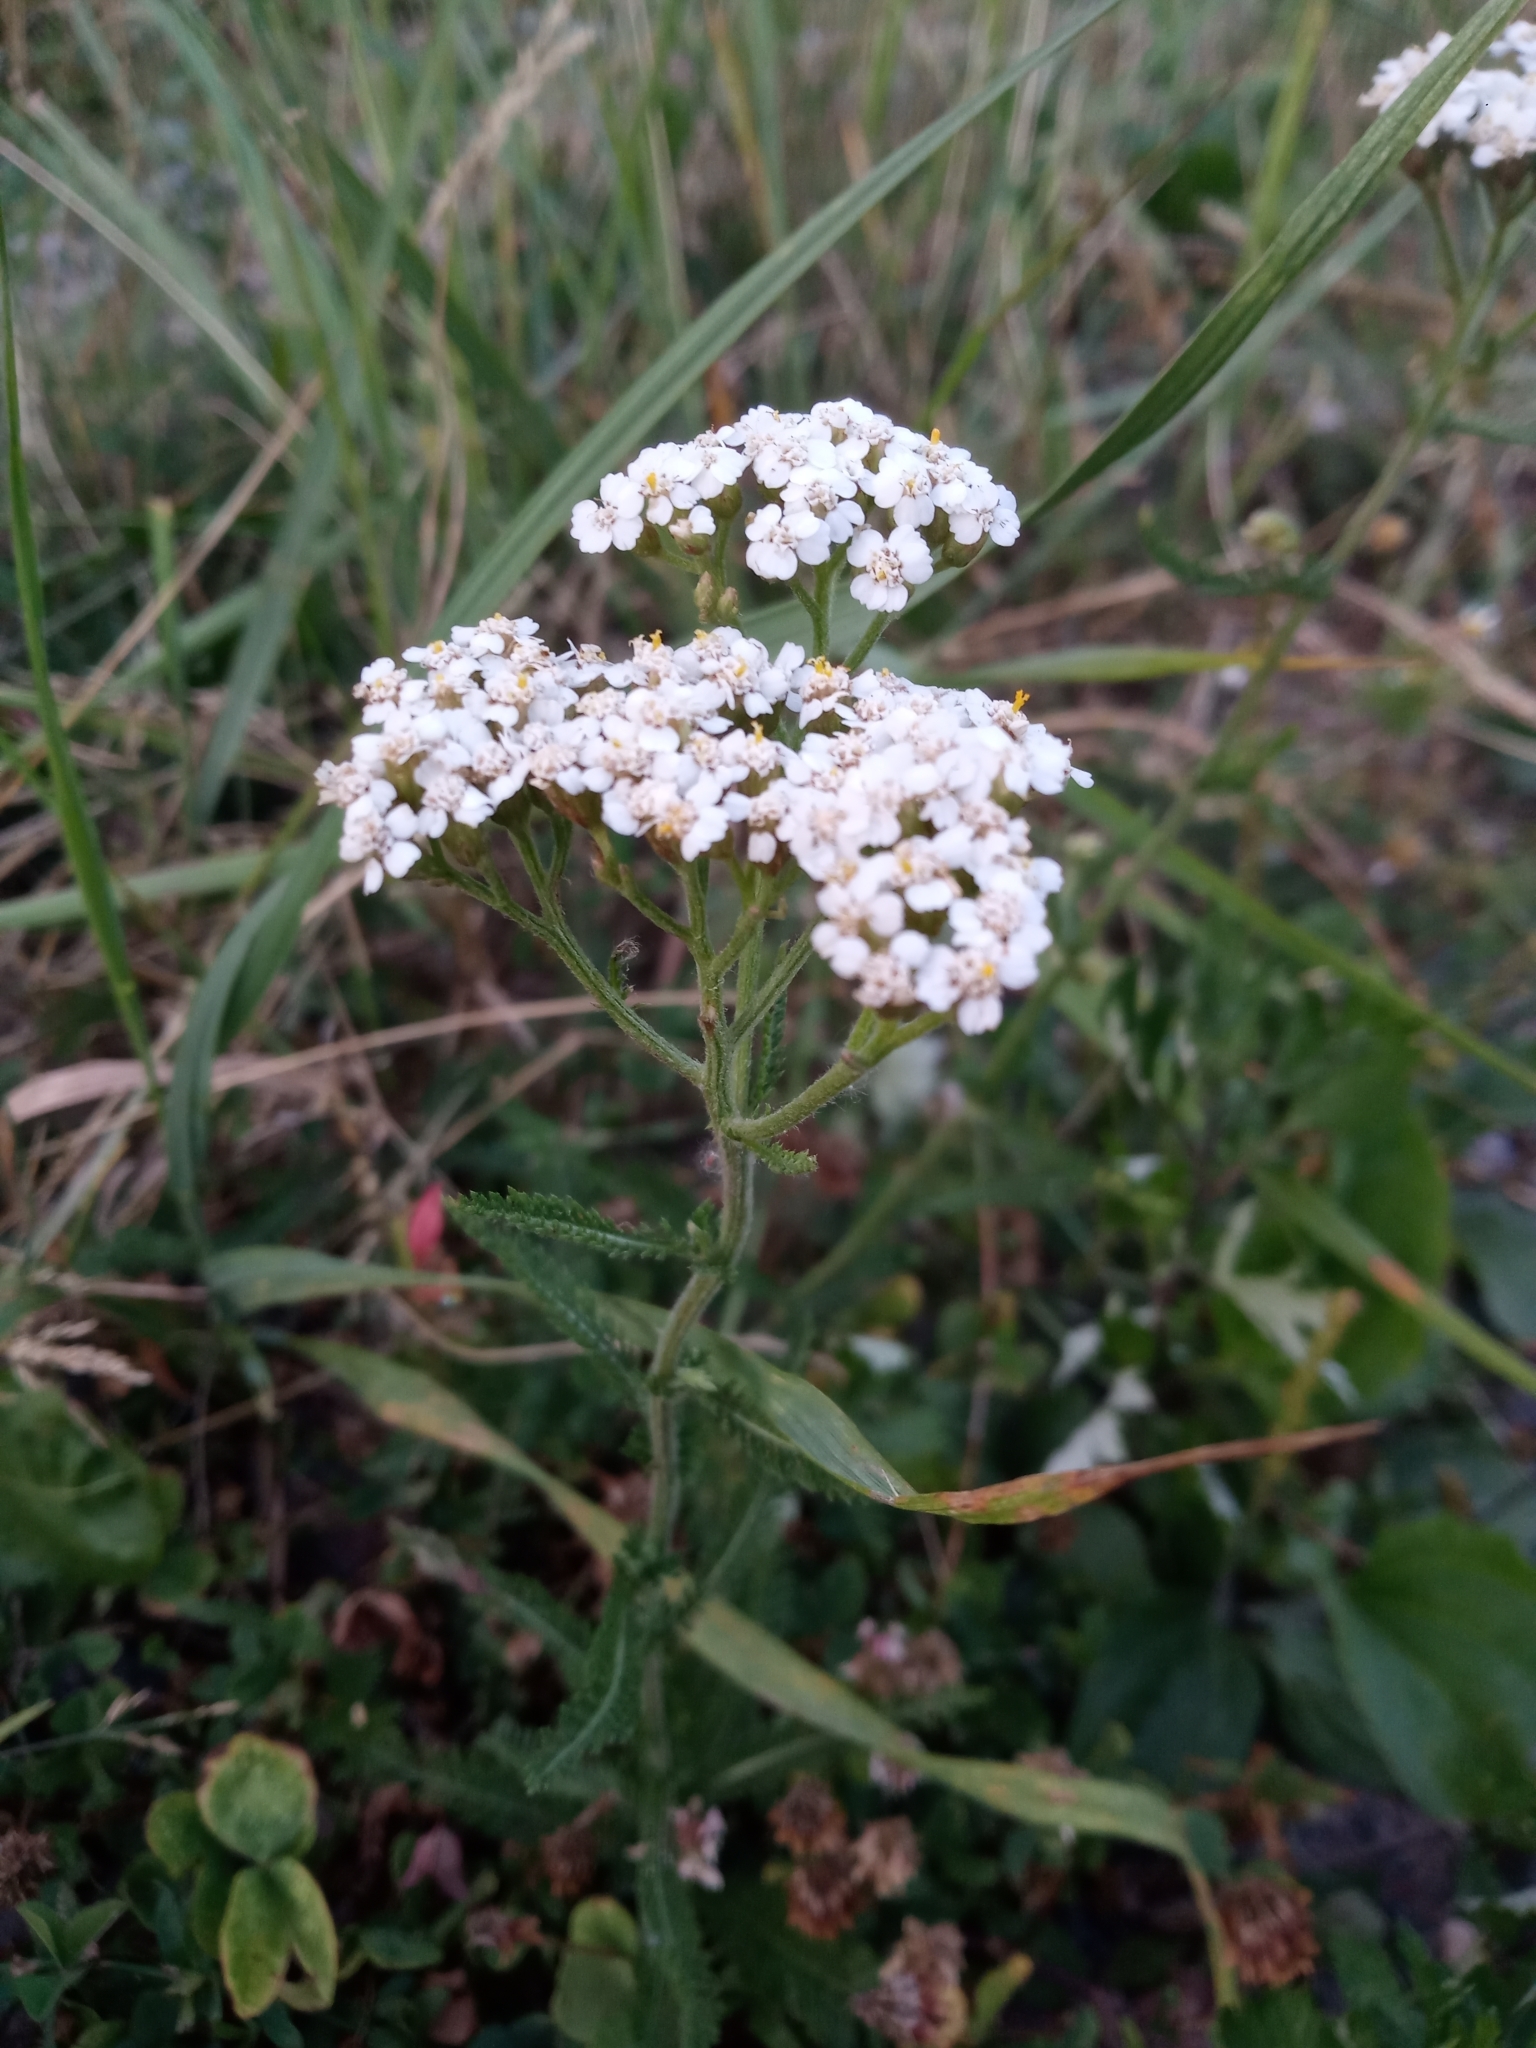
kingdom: Plantae
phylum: Tracheophyta
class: Magnoliopsida
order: Asterales
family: Asteraceae
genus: Achillea
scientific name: Achillea millefolium
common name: Yarrow
